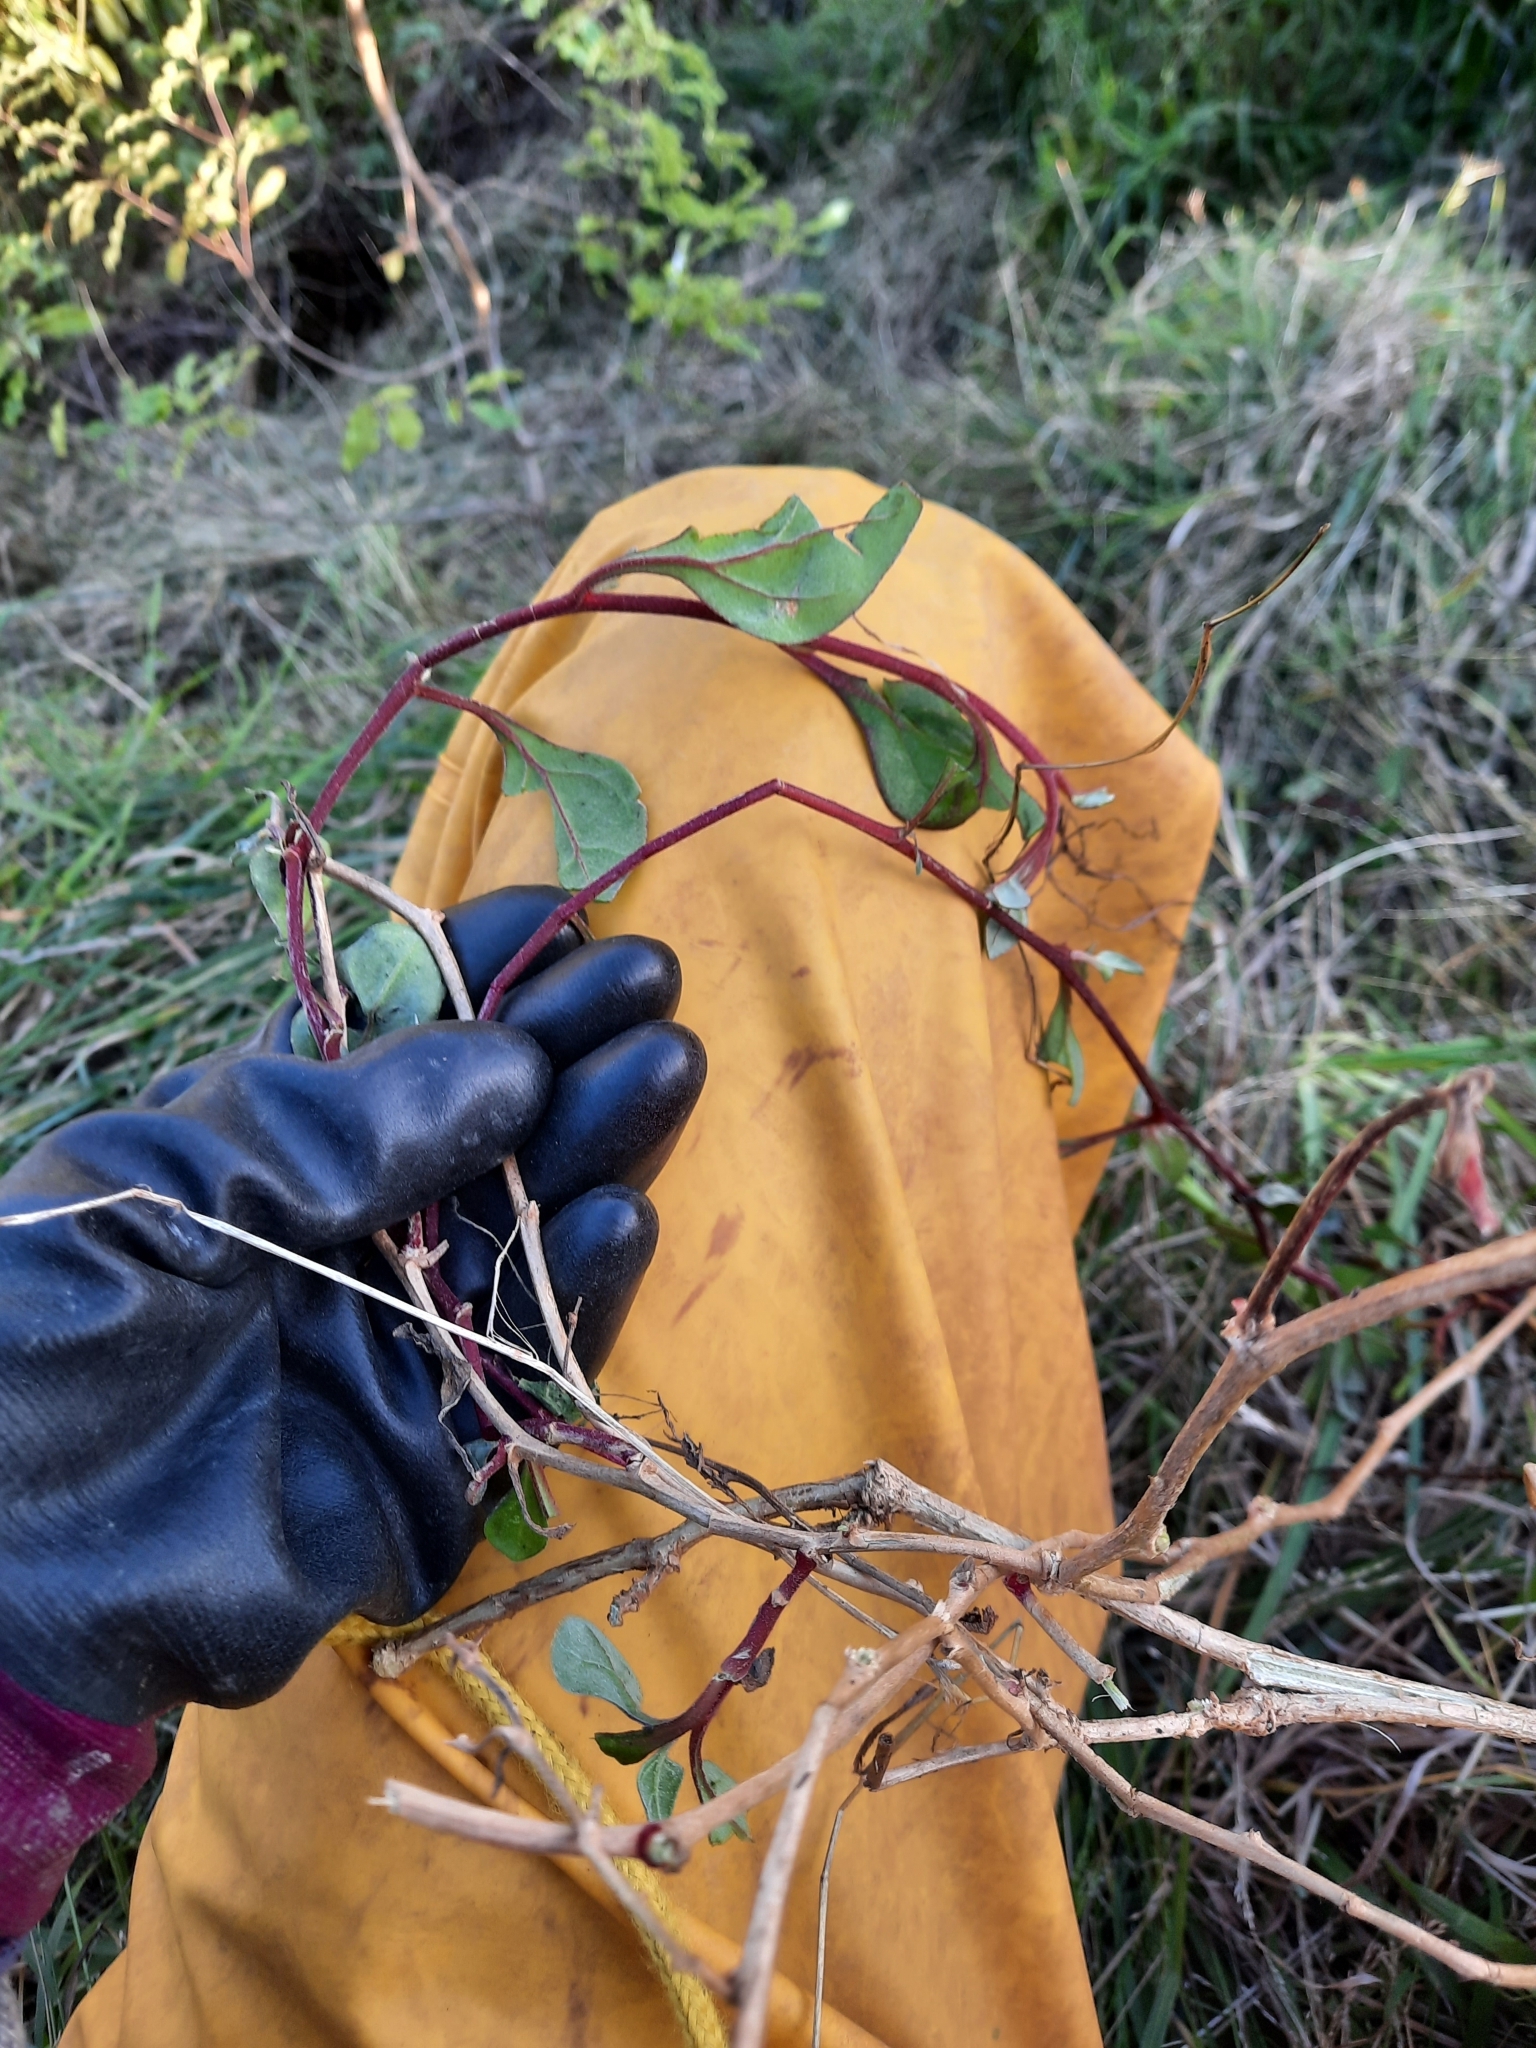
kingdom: Plantae
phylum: Tracheophyta
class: Magnoliopsida
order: Caryophyllales
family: Aizoaceae
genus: Tetragonia
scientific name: Tetragonia implexicoma
